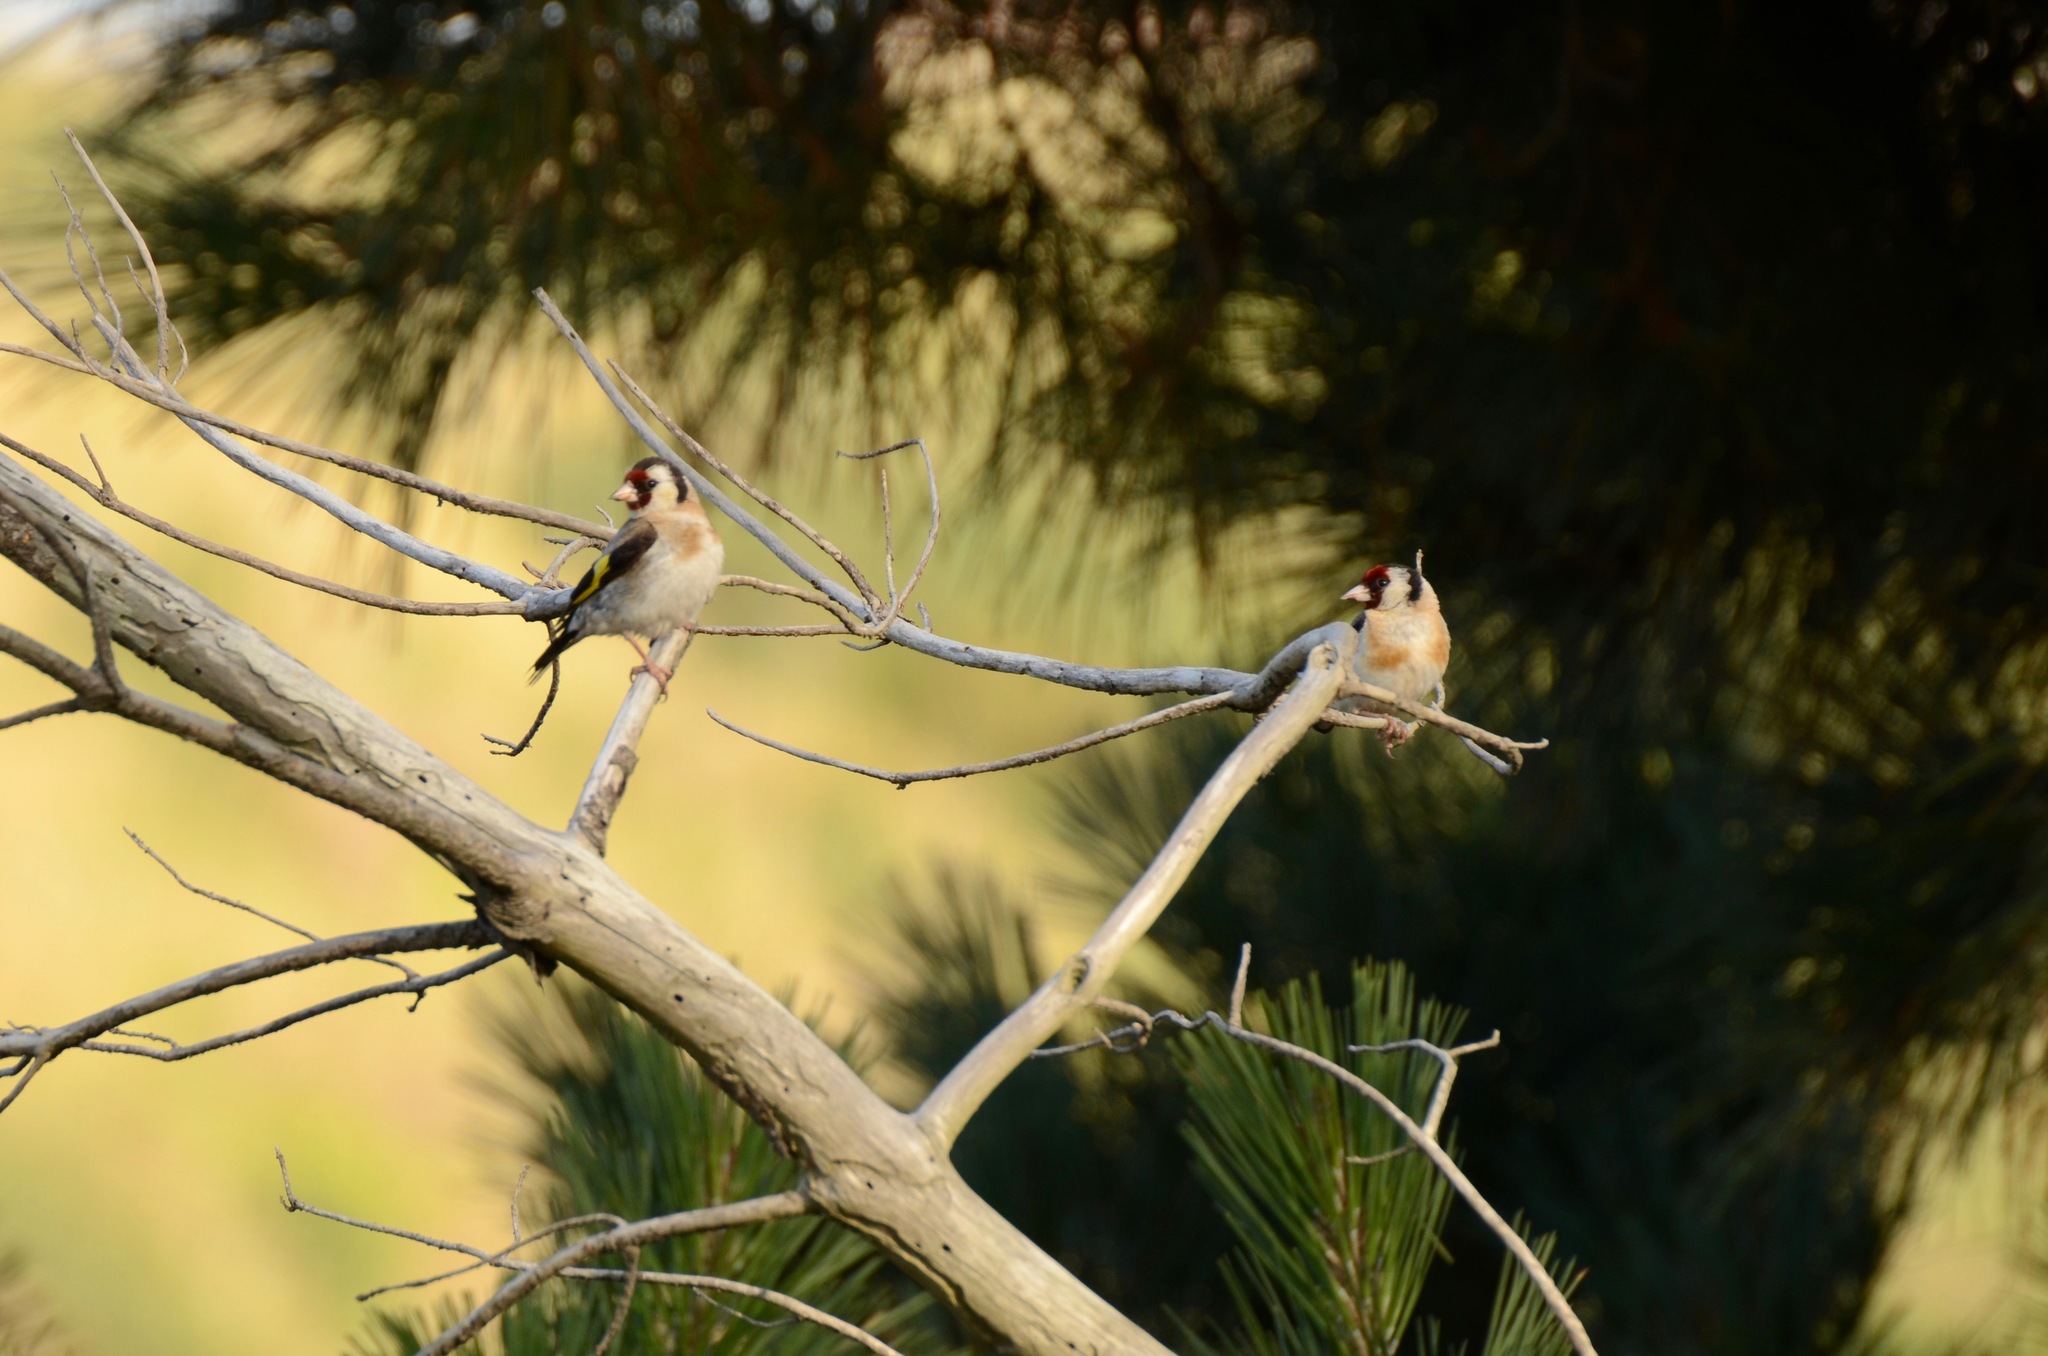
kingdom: Animalia
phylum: Chordata
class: Aves
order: Passeriformes
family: Fringillidae
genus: Carduelis
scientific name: Carduelis carduelis
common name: European goldfinch
